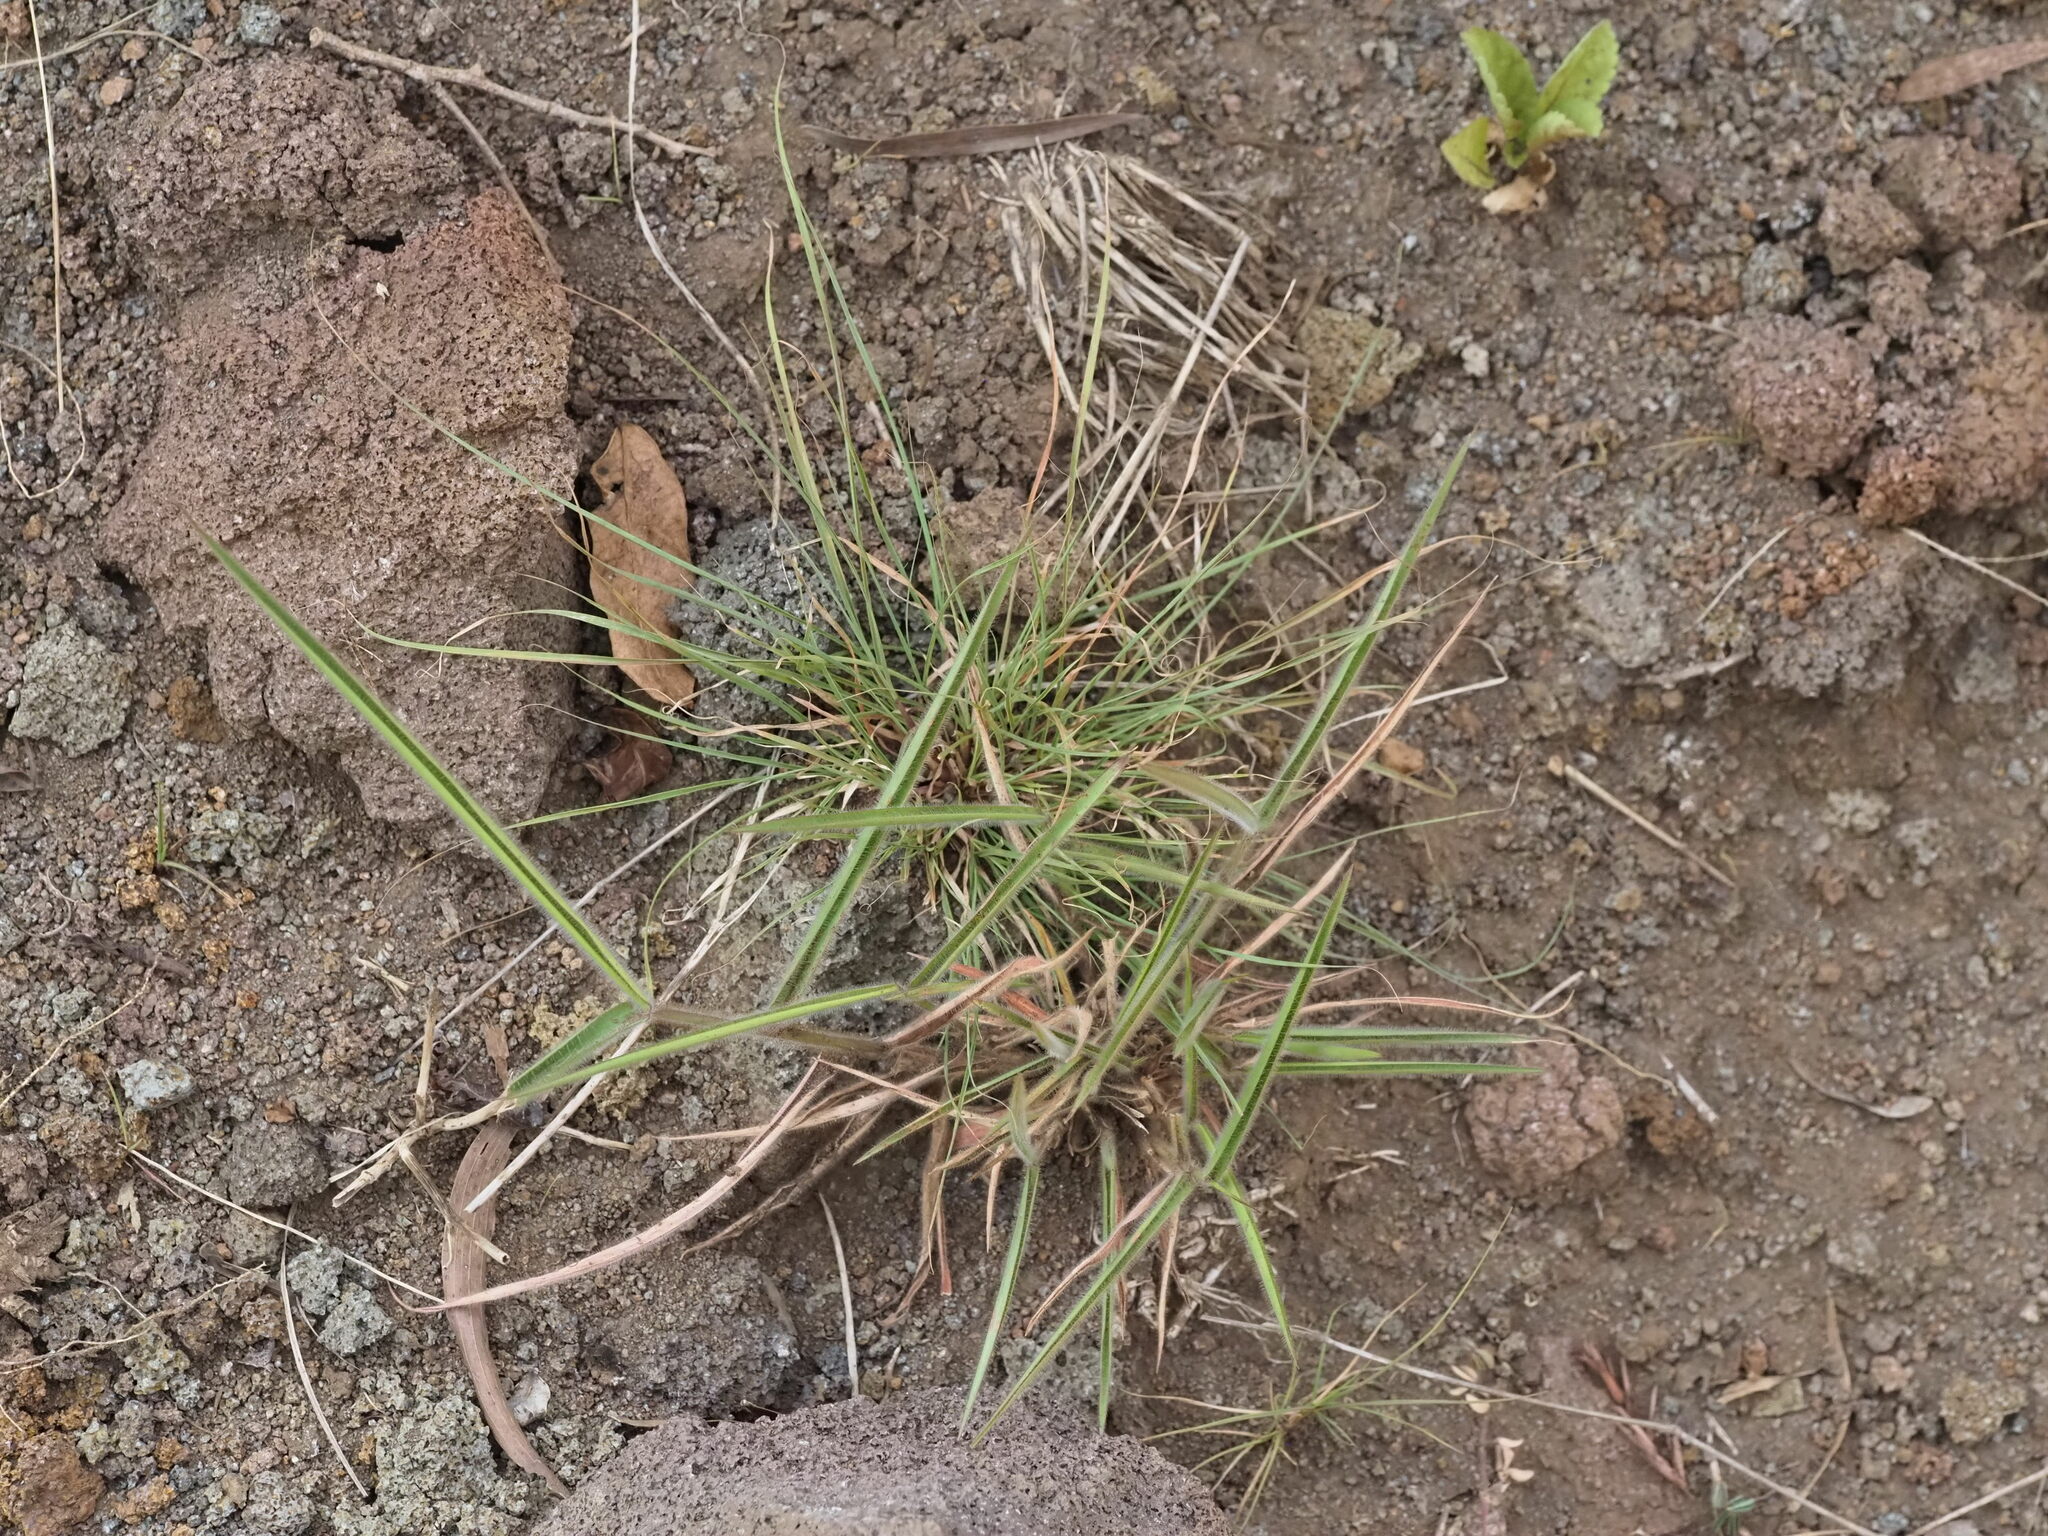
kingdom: Plantae
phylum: Tracheophyta
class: Liliopsida
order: Poales
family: Poaceae
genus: Melinis
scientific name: Melinis minutiflora
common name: Molassesgrass
